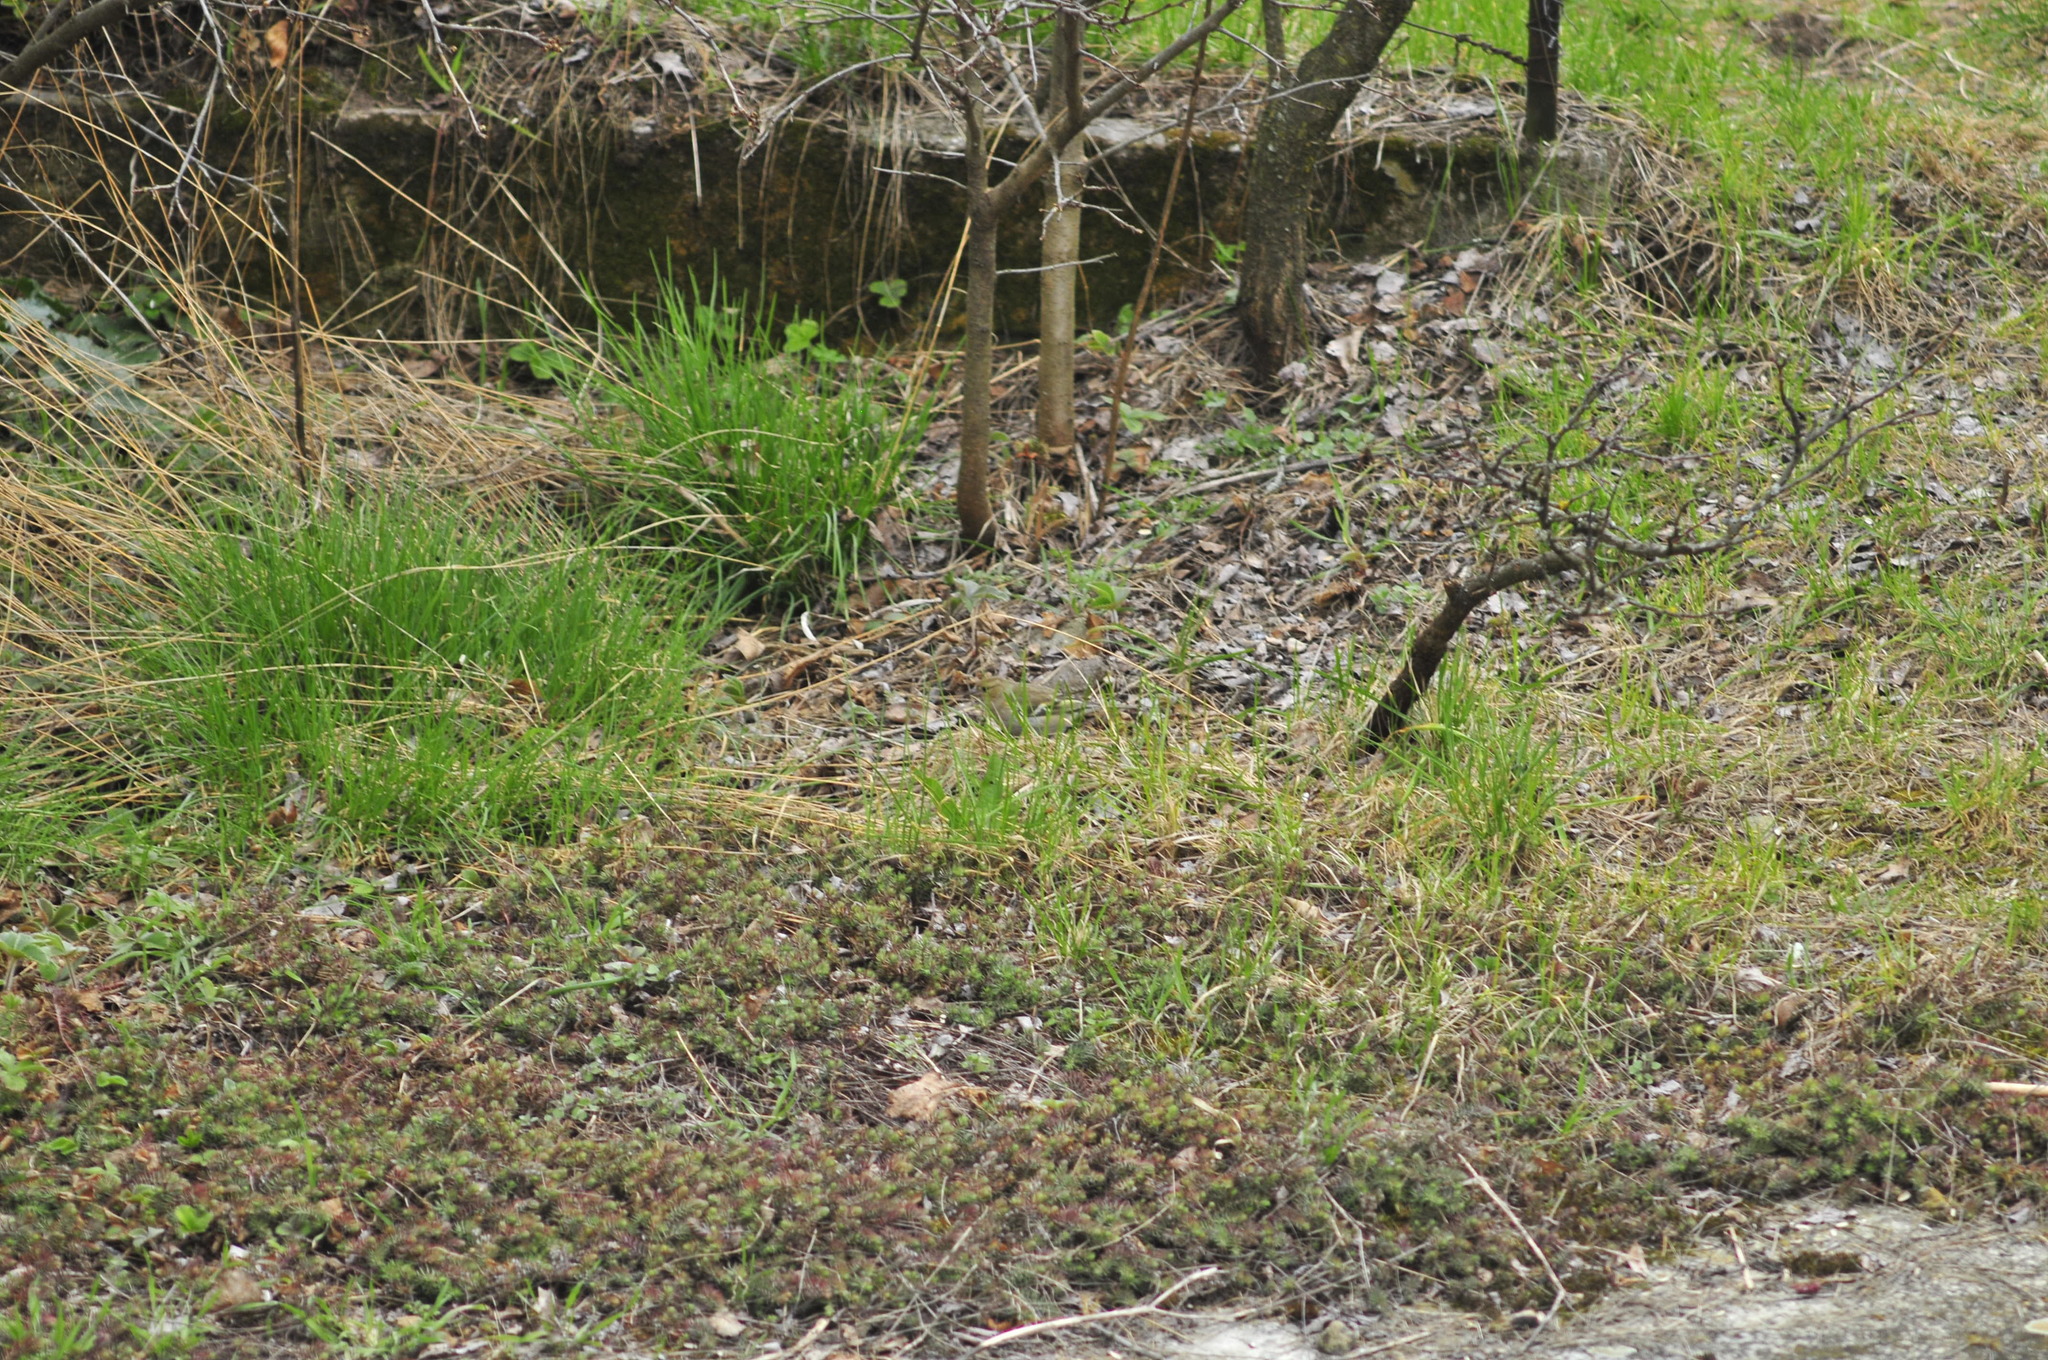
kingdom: Animalia
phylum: Chordata
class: Aves
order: Passeriformes
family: Fringillidae
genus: Fringilla
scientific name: Fringilla coelebs
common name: Common chaffinch
